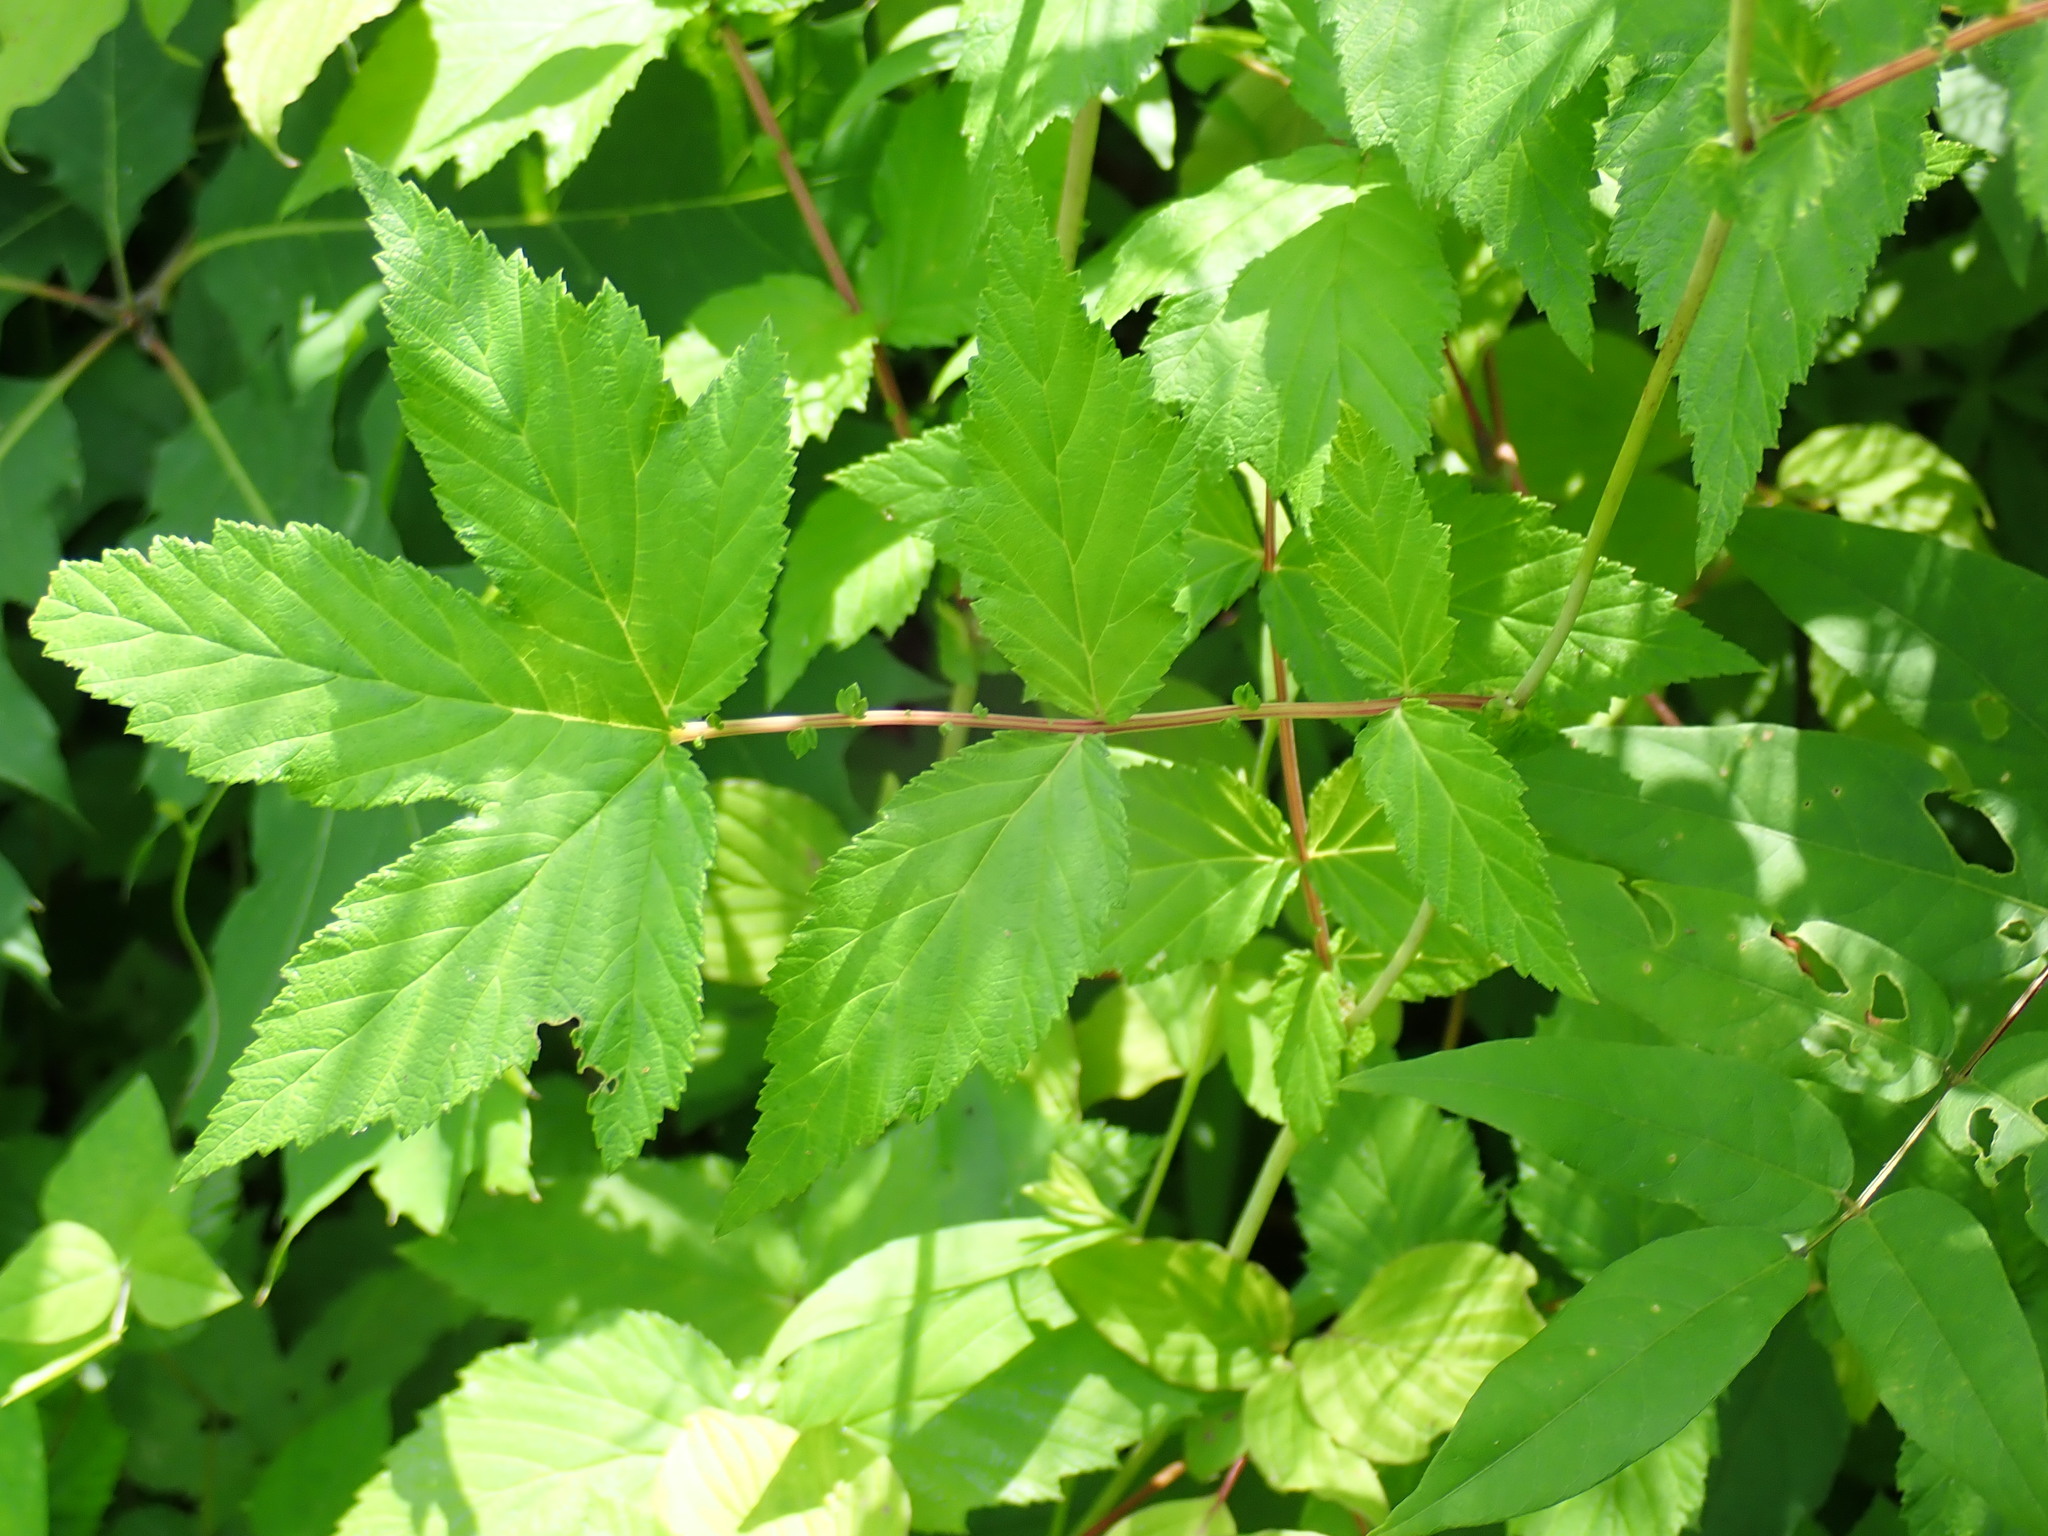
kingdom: Plantae
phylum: Tracheophyta
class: Magnoliopsida
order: Rosales
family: Rosaceae
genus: Filipendula
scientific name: Filipendula ulmaria
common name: Meadowsweet
